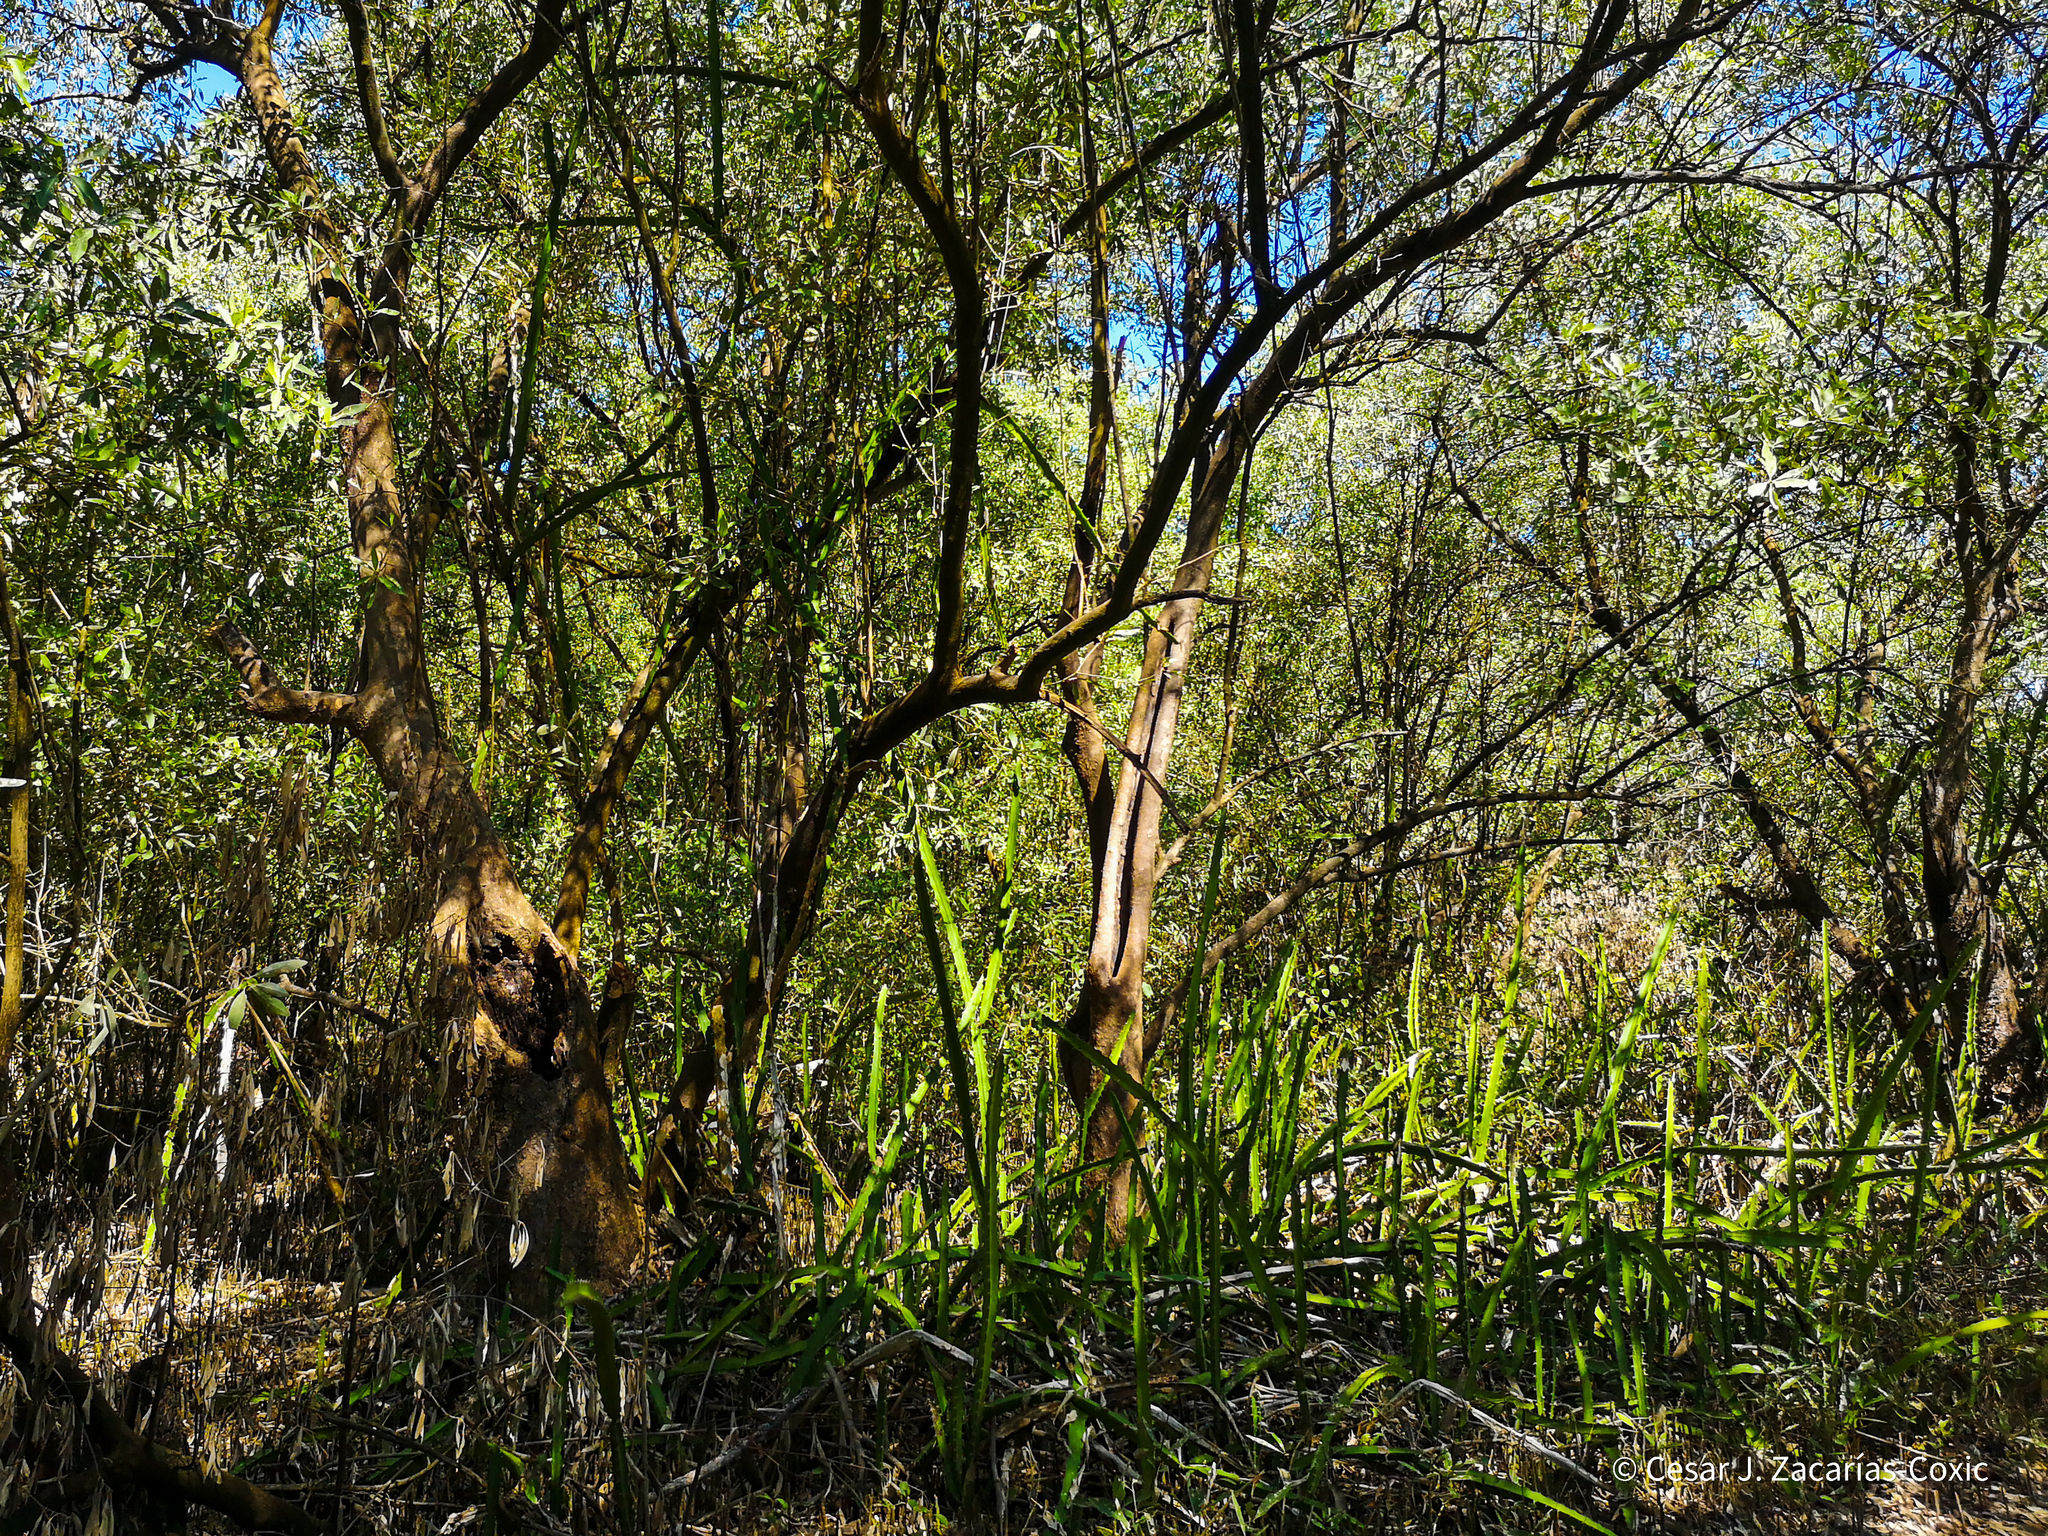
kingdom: Plantae
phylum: Tracheophyta
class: Magnoliopsida
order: Lamiales
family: Acanthaceae
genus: Avicennia
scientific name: Avicennia germinans
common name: Black mangrove
